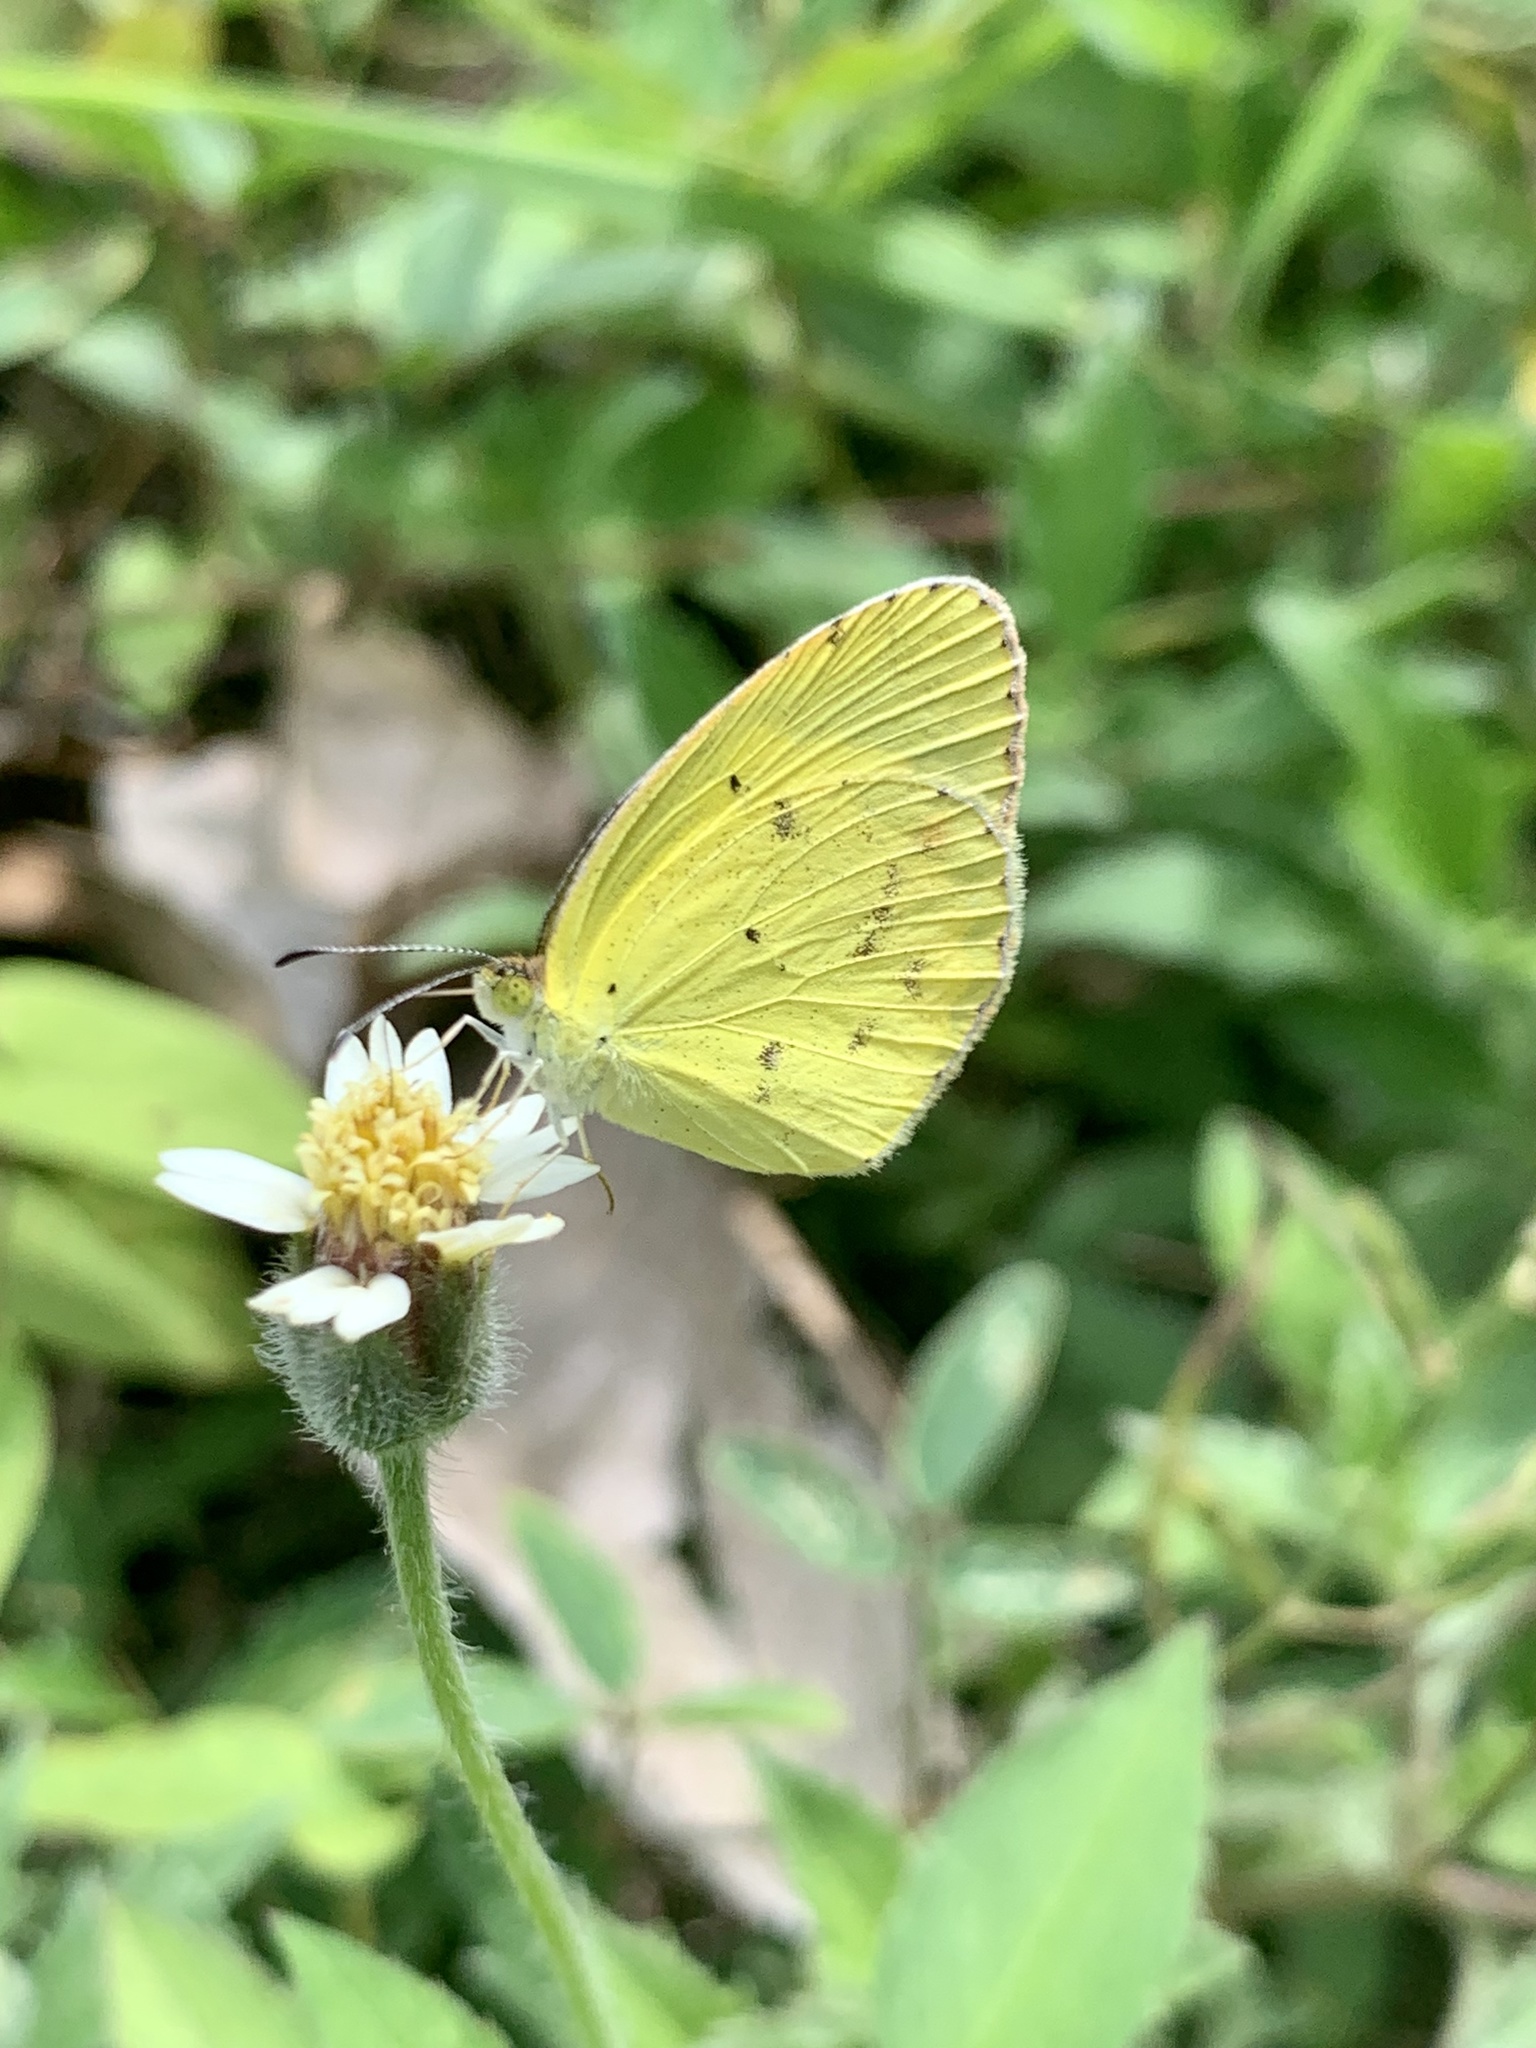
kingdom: Animalia
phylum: Arthropoda
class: Insecta
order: Lepidoptera
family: Pieridae
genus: Pyrisitia
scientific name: Pyrisitia lisa
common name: Little yellow
